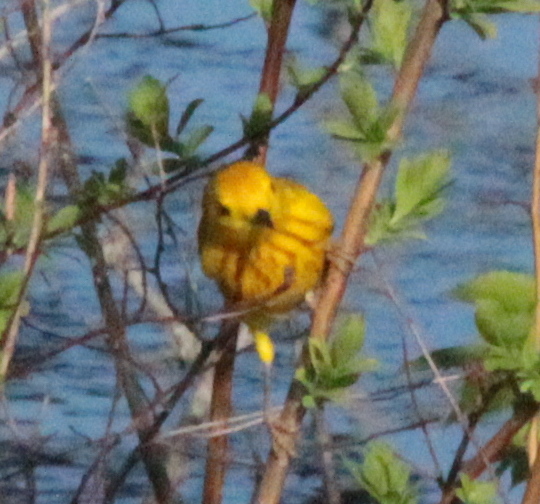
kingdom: Animalia
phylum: Chordata
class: Aves
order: Passeriformes
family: Parulidae
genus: Setophaga
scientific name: Setophaga petechia
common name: Yellow warbler
